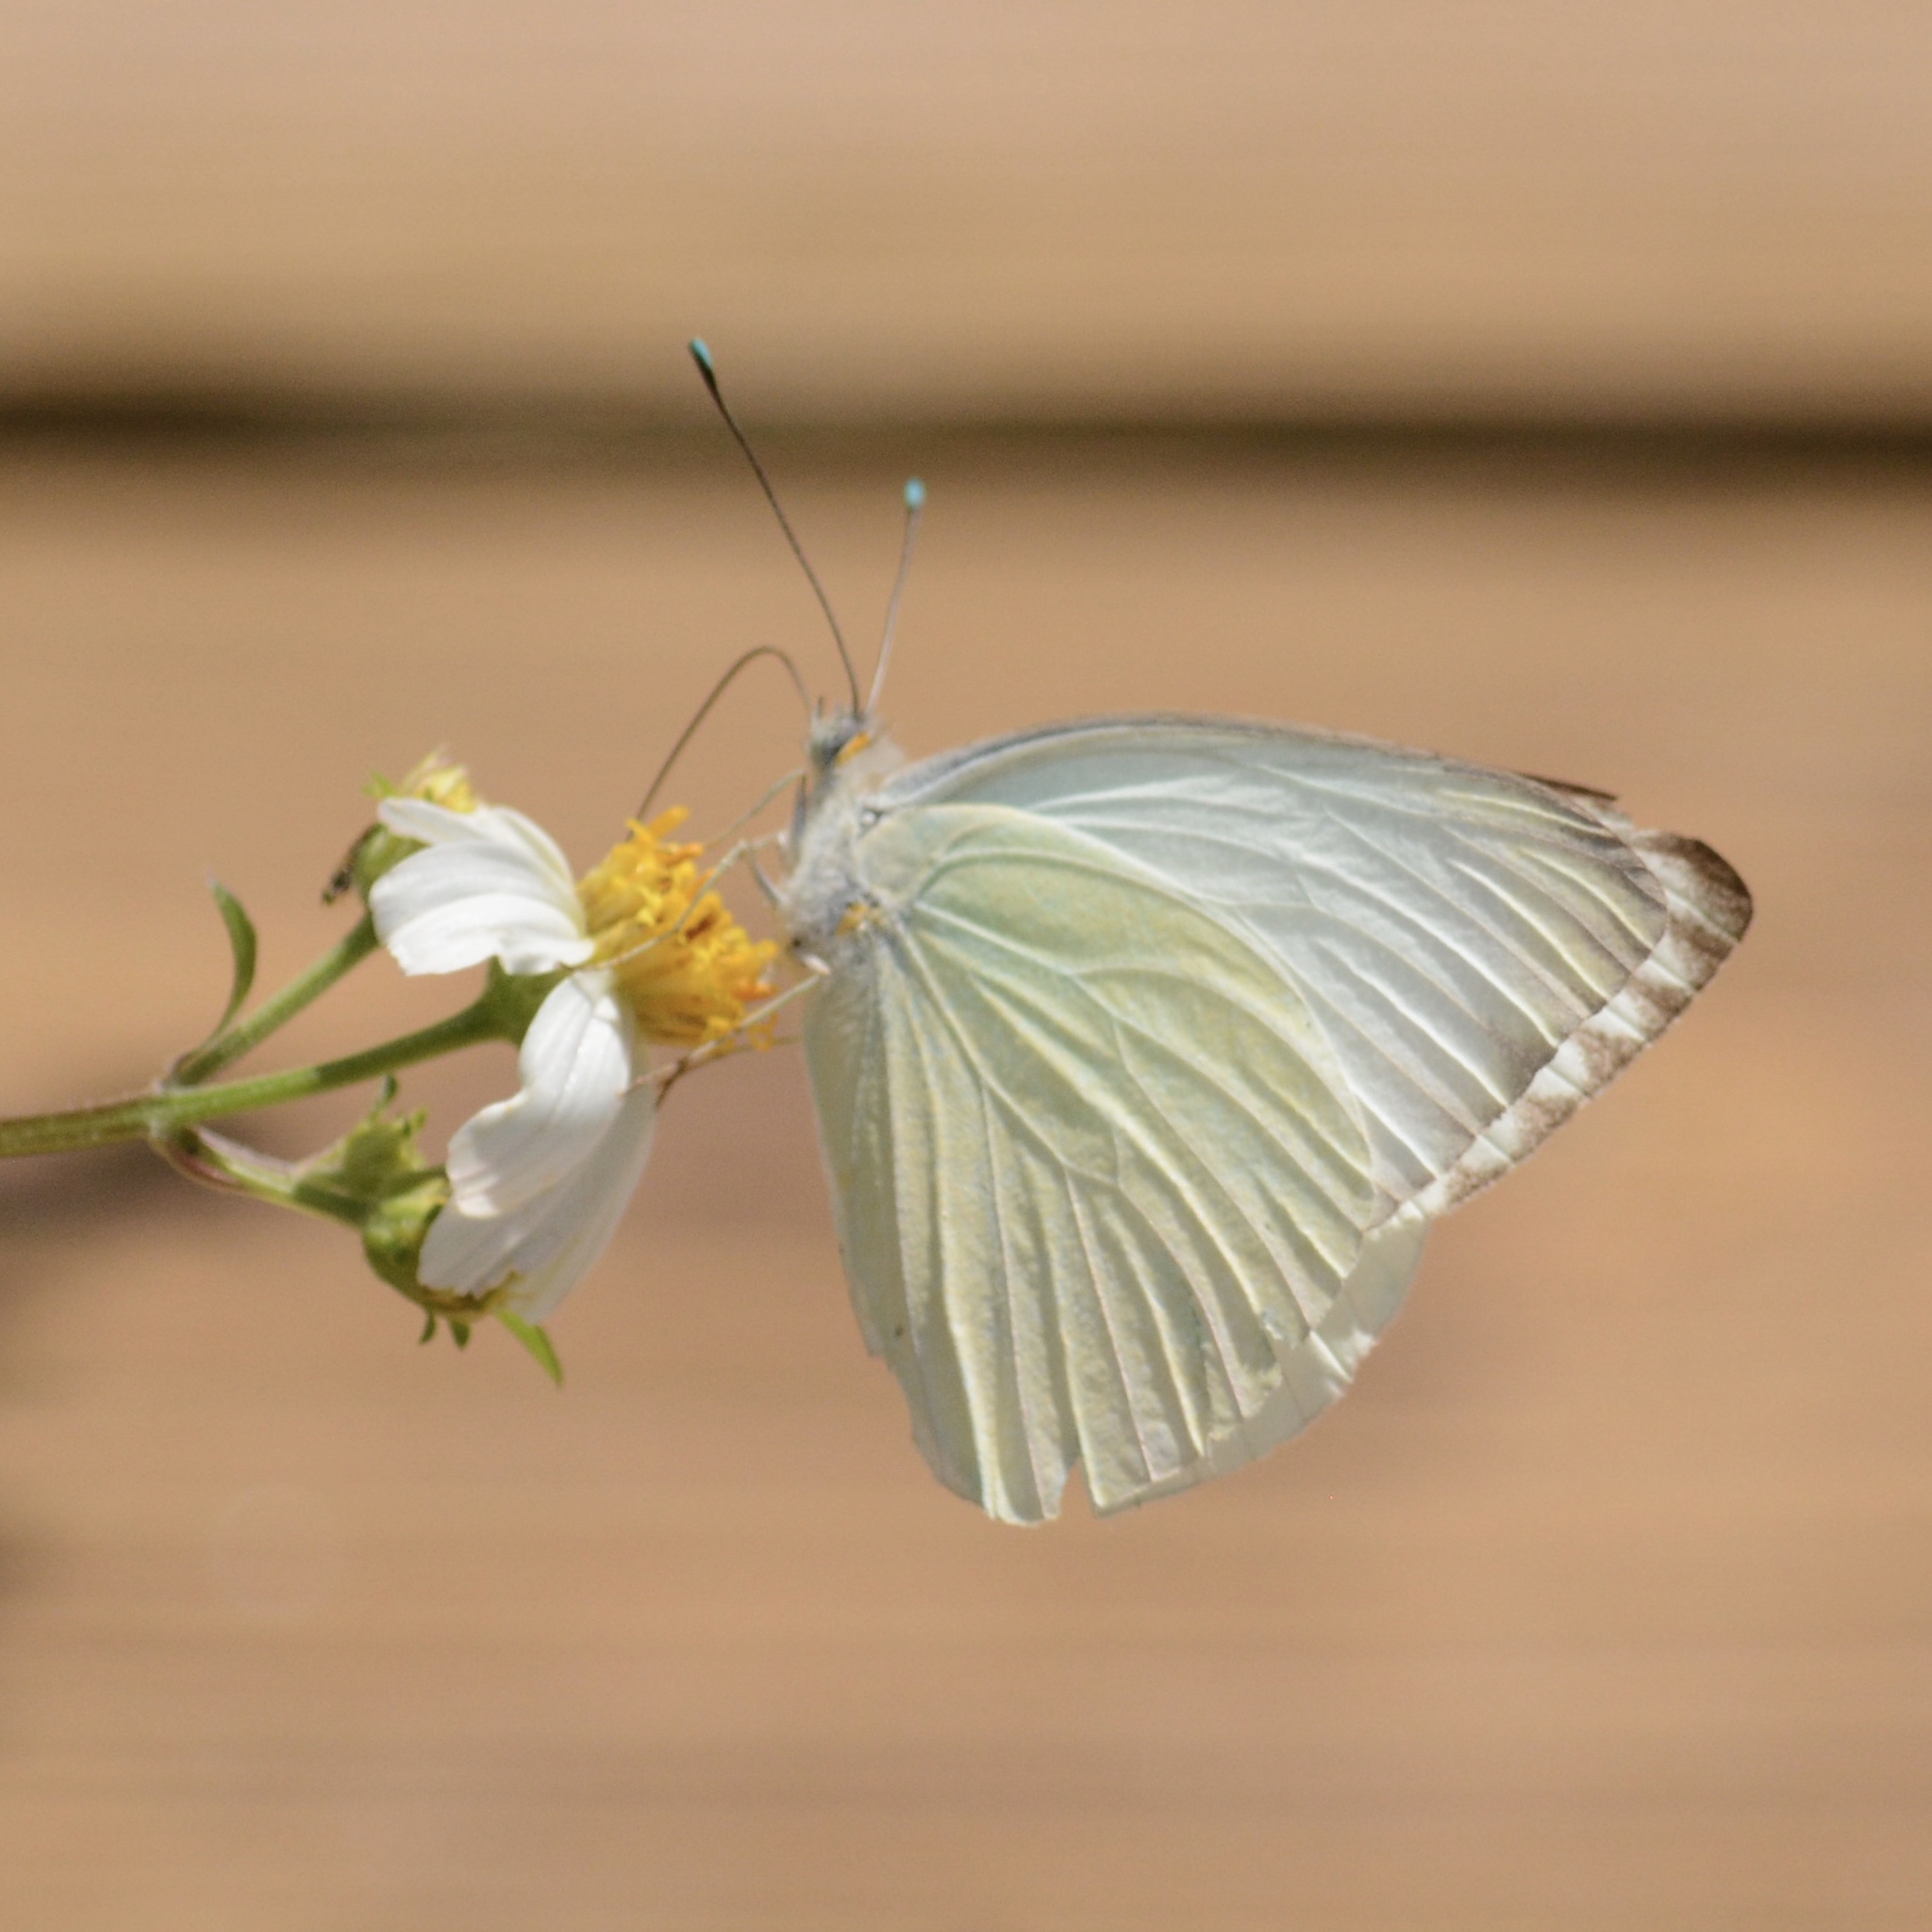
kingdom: Animalia
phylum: Arthropoda
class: Insecta
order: Lepidoptera
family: Pieridae
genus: Ascia
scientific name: Ascia monuste
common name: Great southern white
